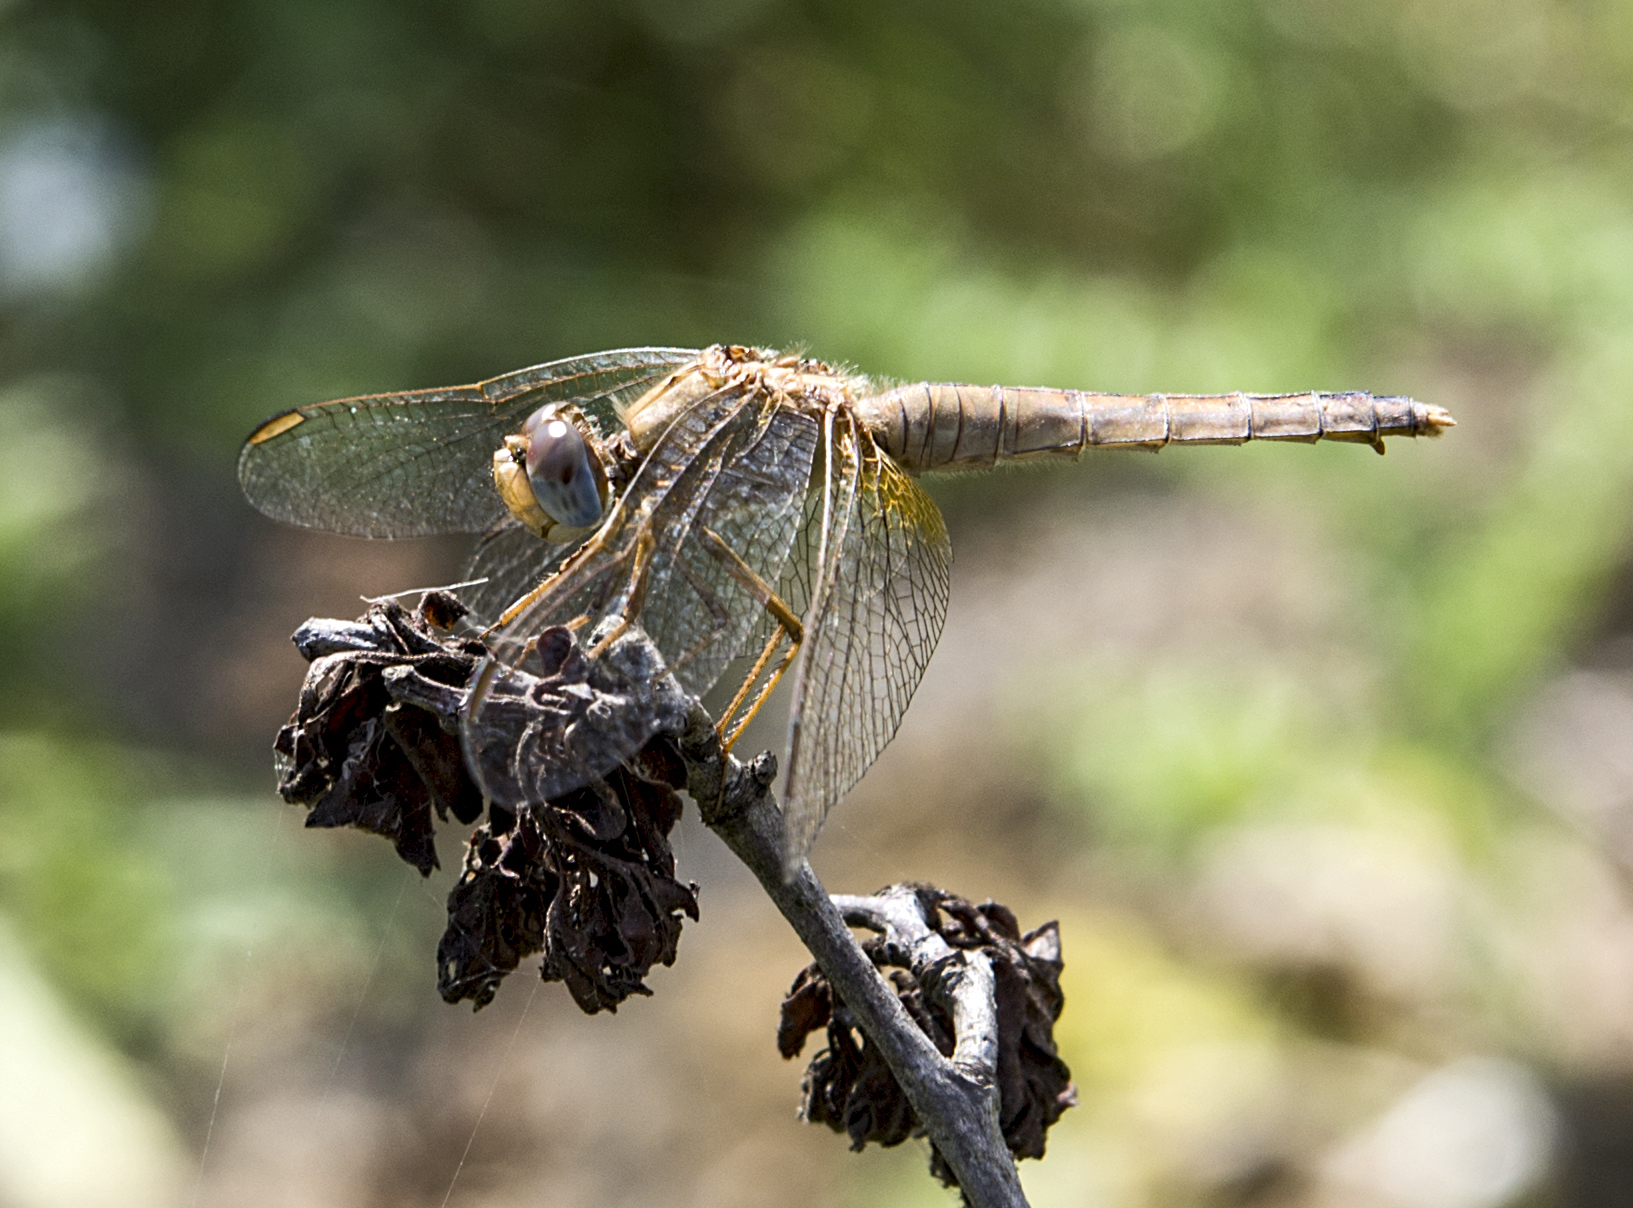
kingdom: Animalia
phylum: Arthropoda
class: Insecta
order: Odonata
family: Libellulidae
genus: Crocothemis
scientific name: Crocothemis erythraea
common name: Scarlet dragonfly
